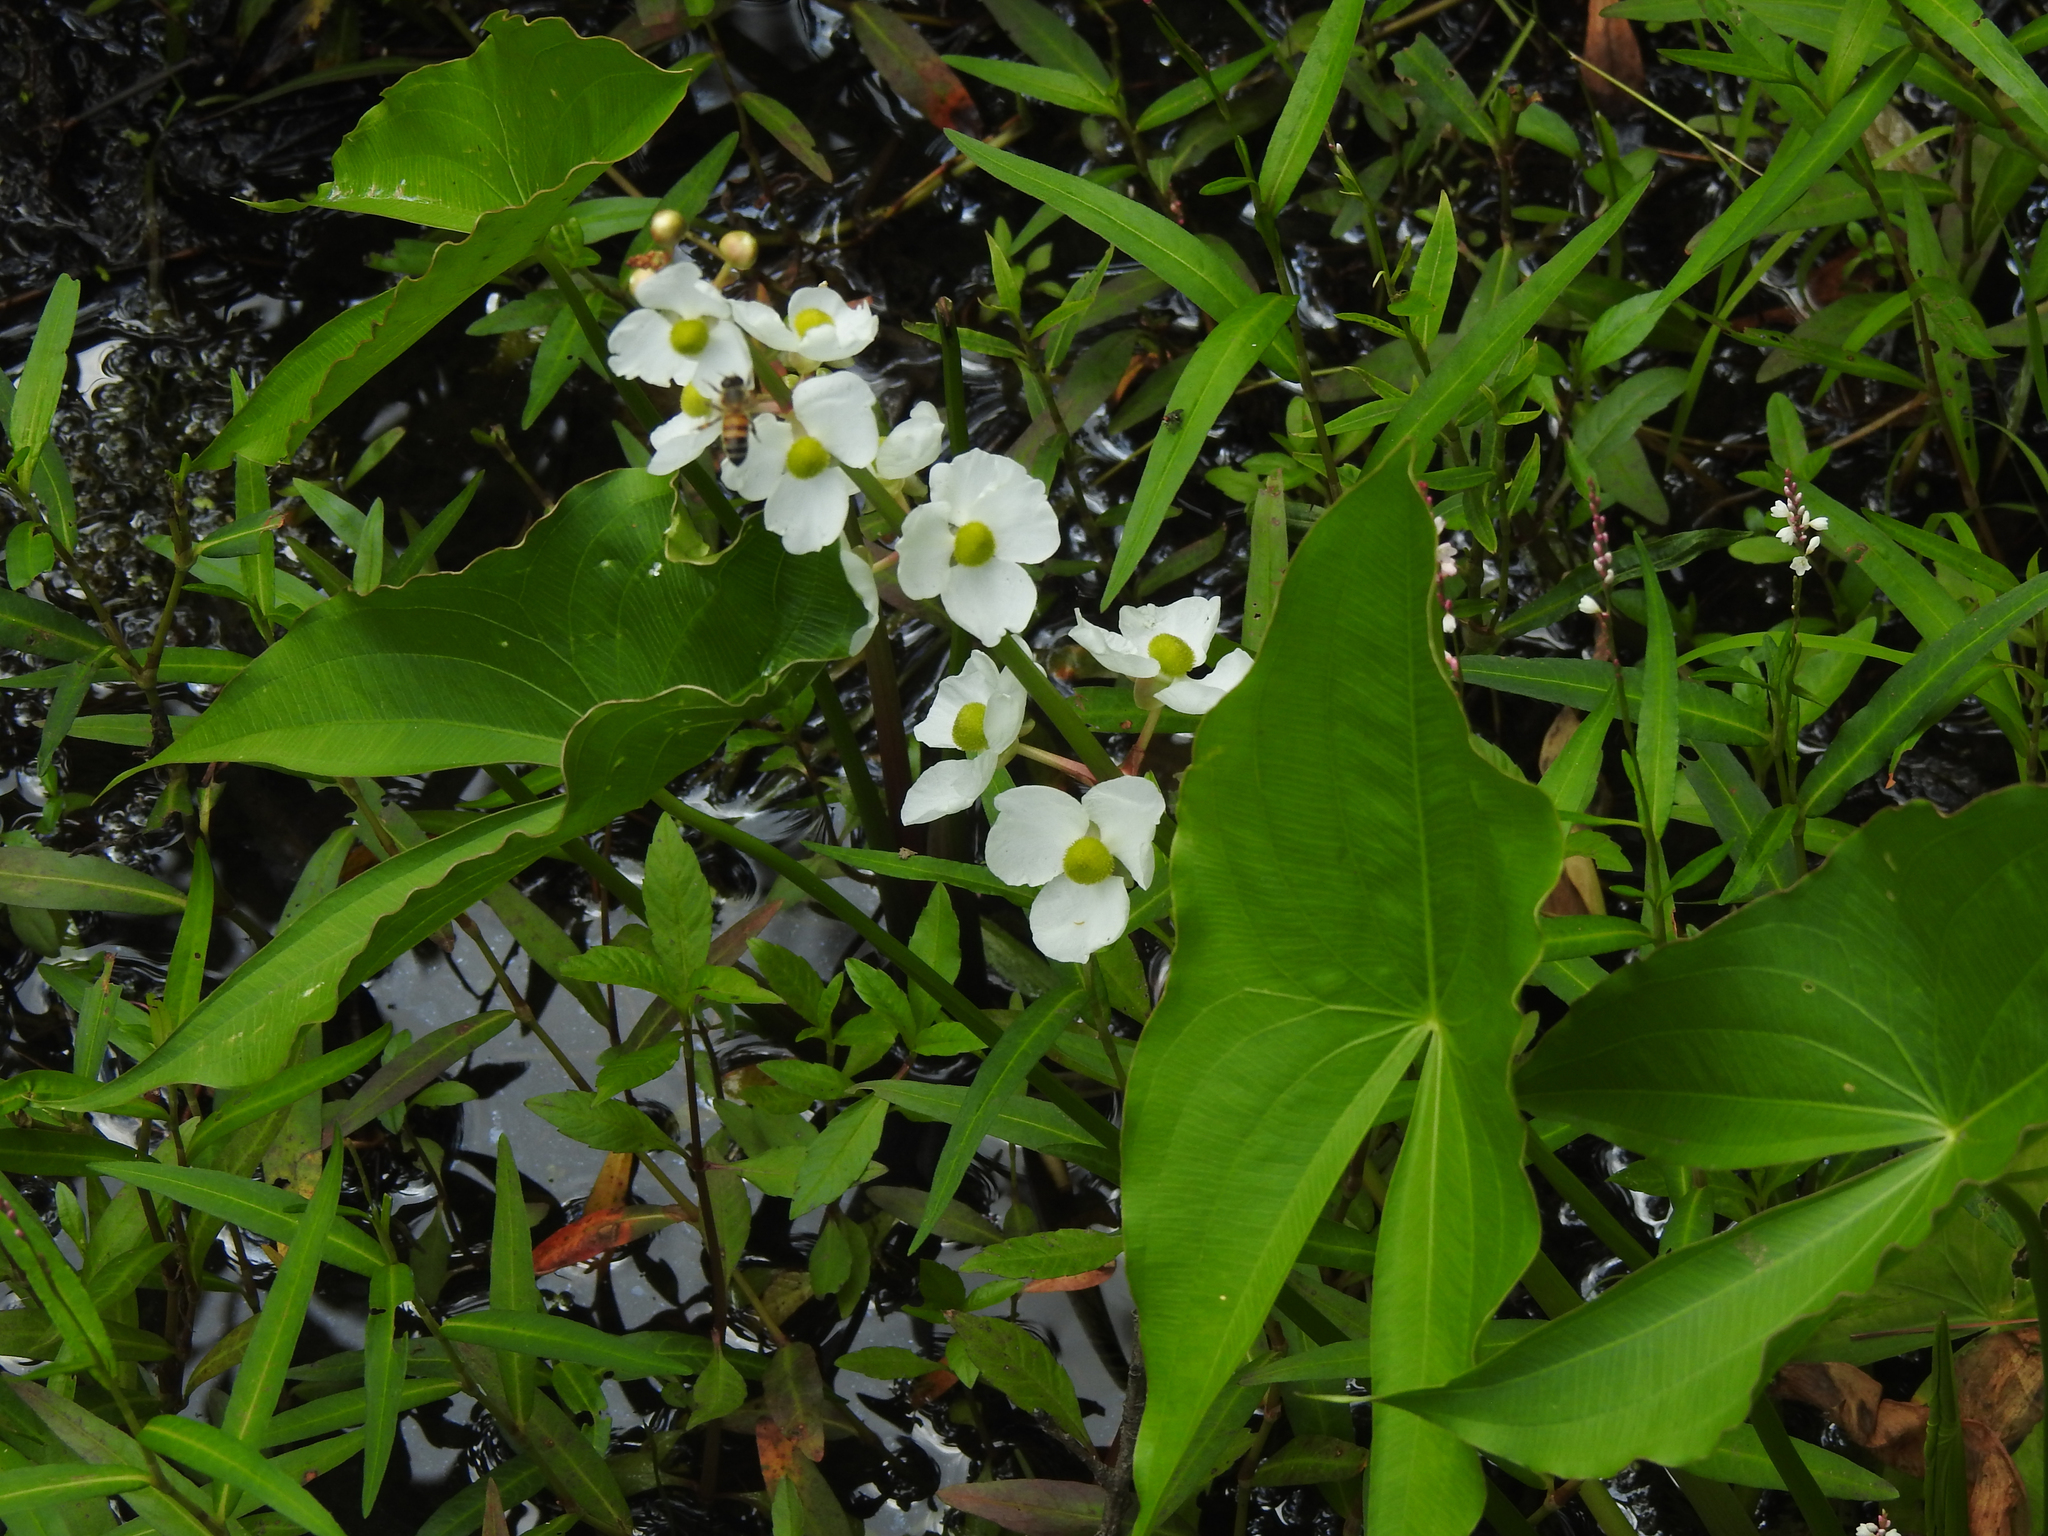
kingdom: Plantae
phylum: Tracheophyta
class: Liliopsida
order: Alismatales
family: Alismataceae
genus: Sagittaria
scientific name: Sagittaria latifolia
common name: Duck-potato
